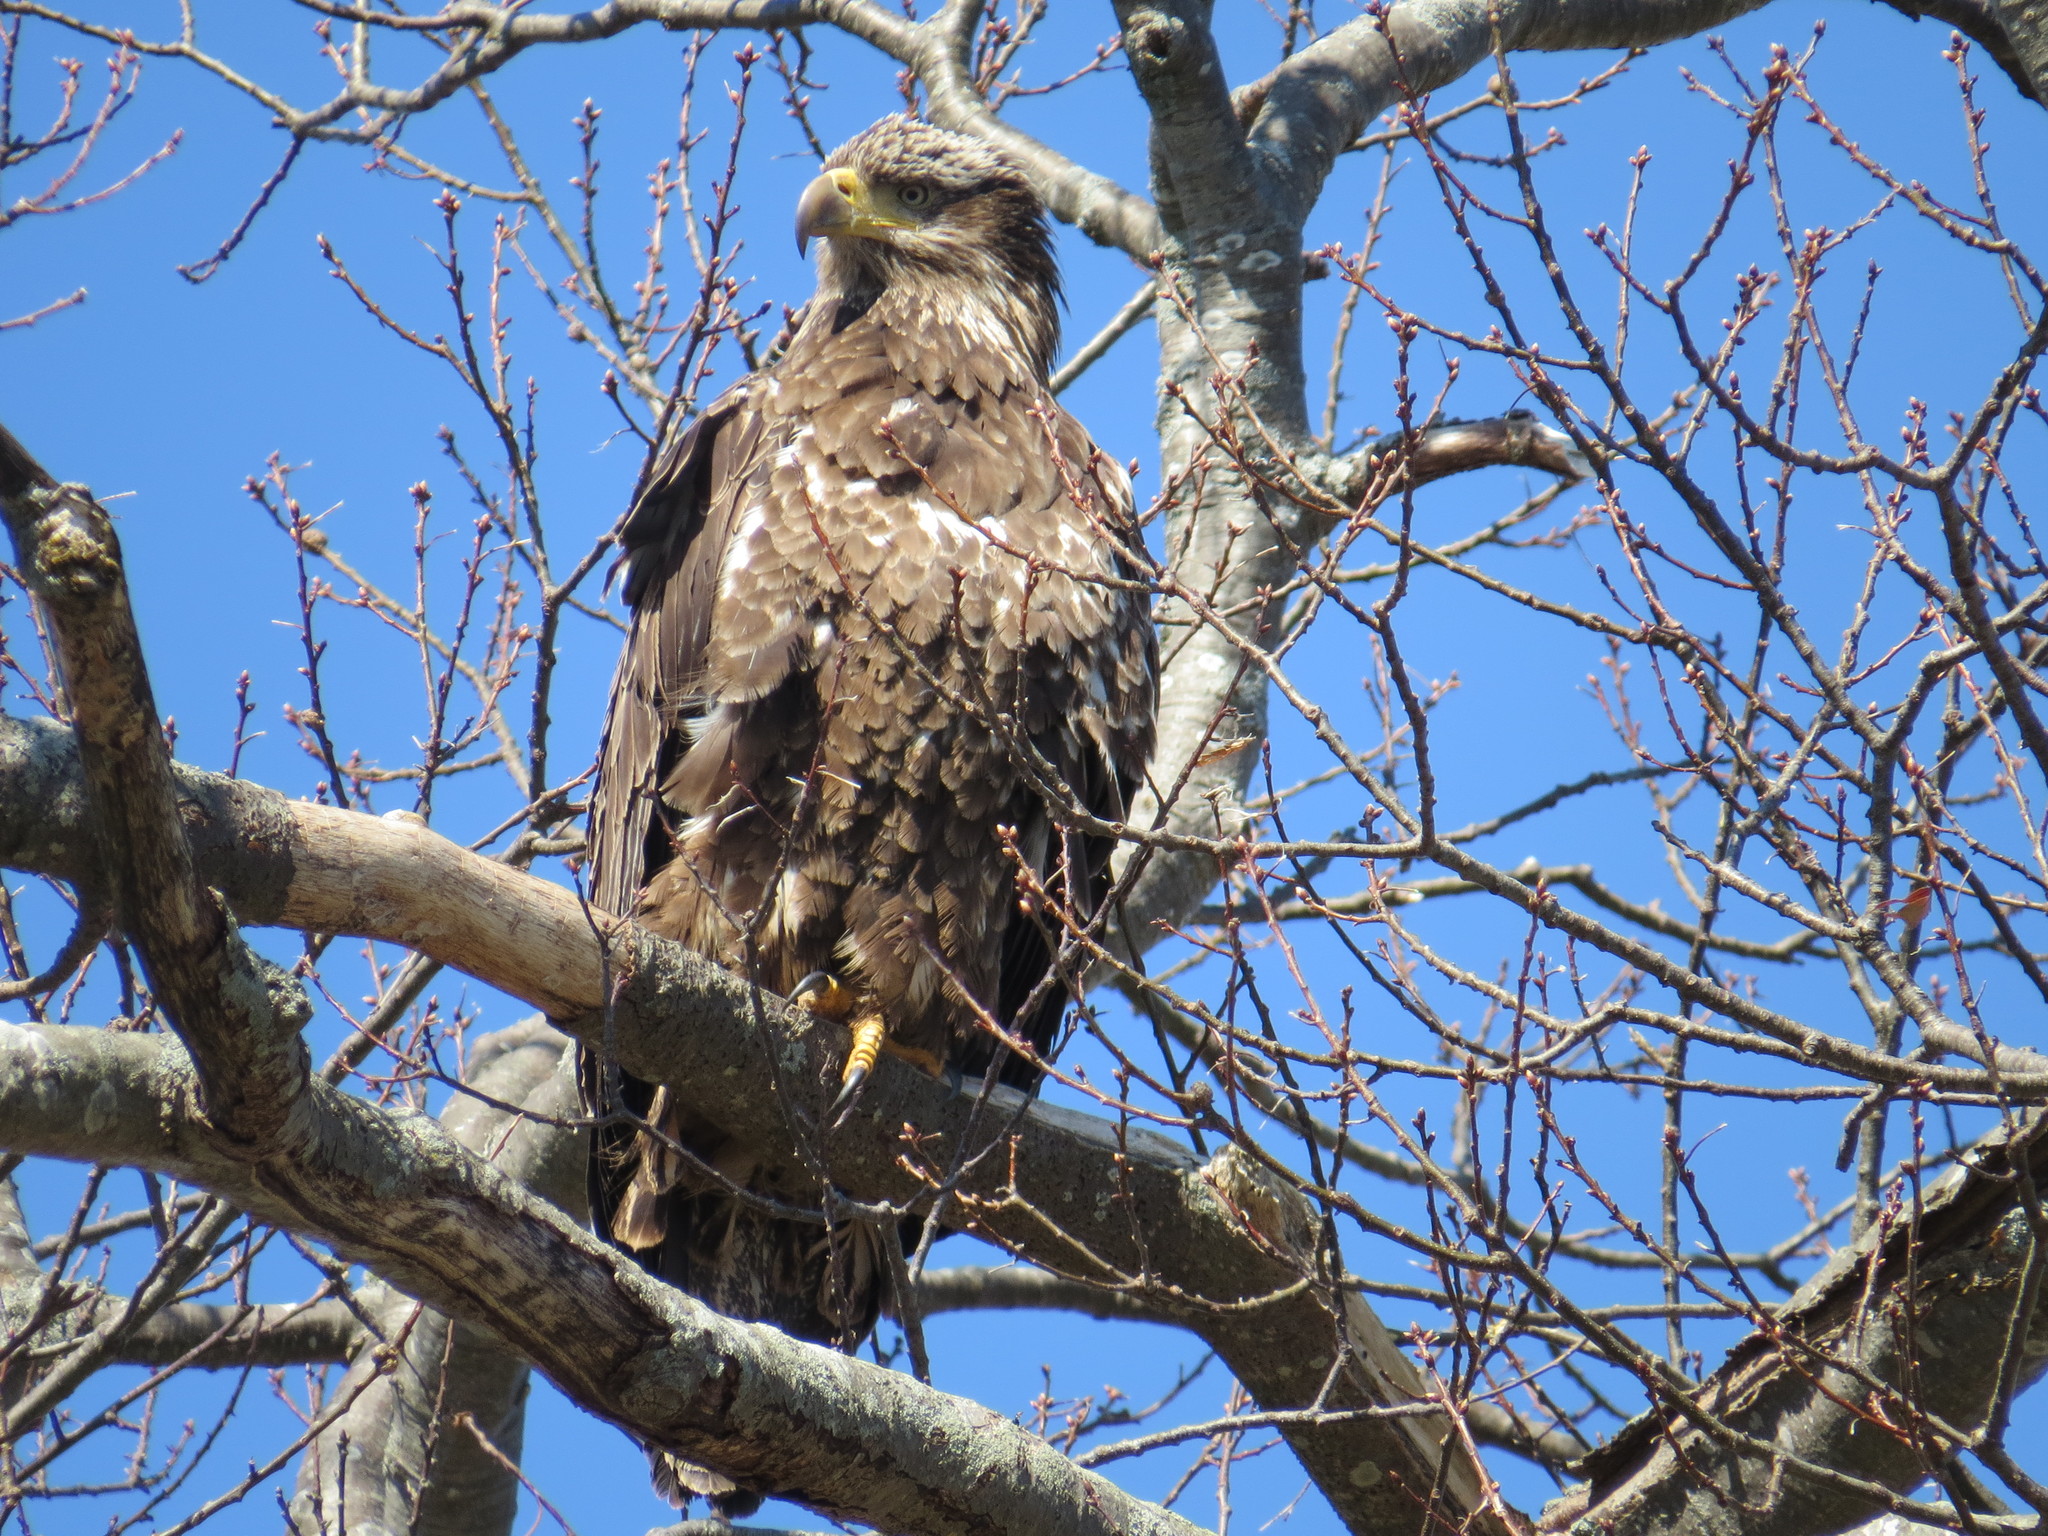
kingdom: Animalia
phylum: Chordata
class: Aves
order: Accipitriformes
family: Accipitridae
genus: Haliaeetus
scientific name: Haliaeetus leucocephalus
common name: Bald eagle
